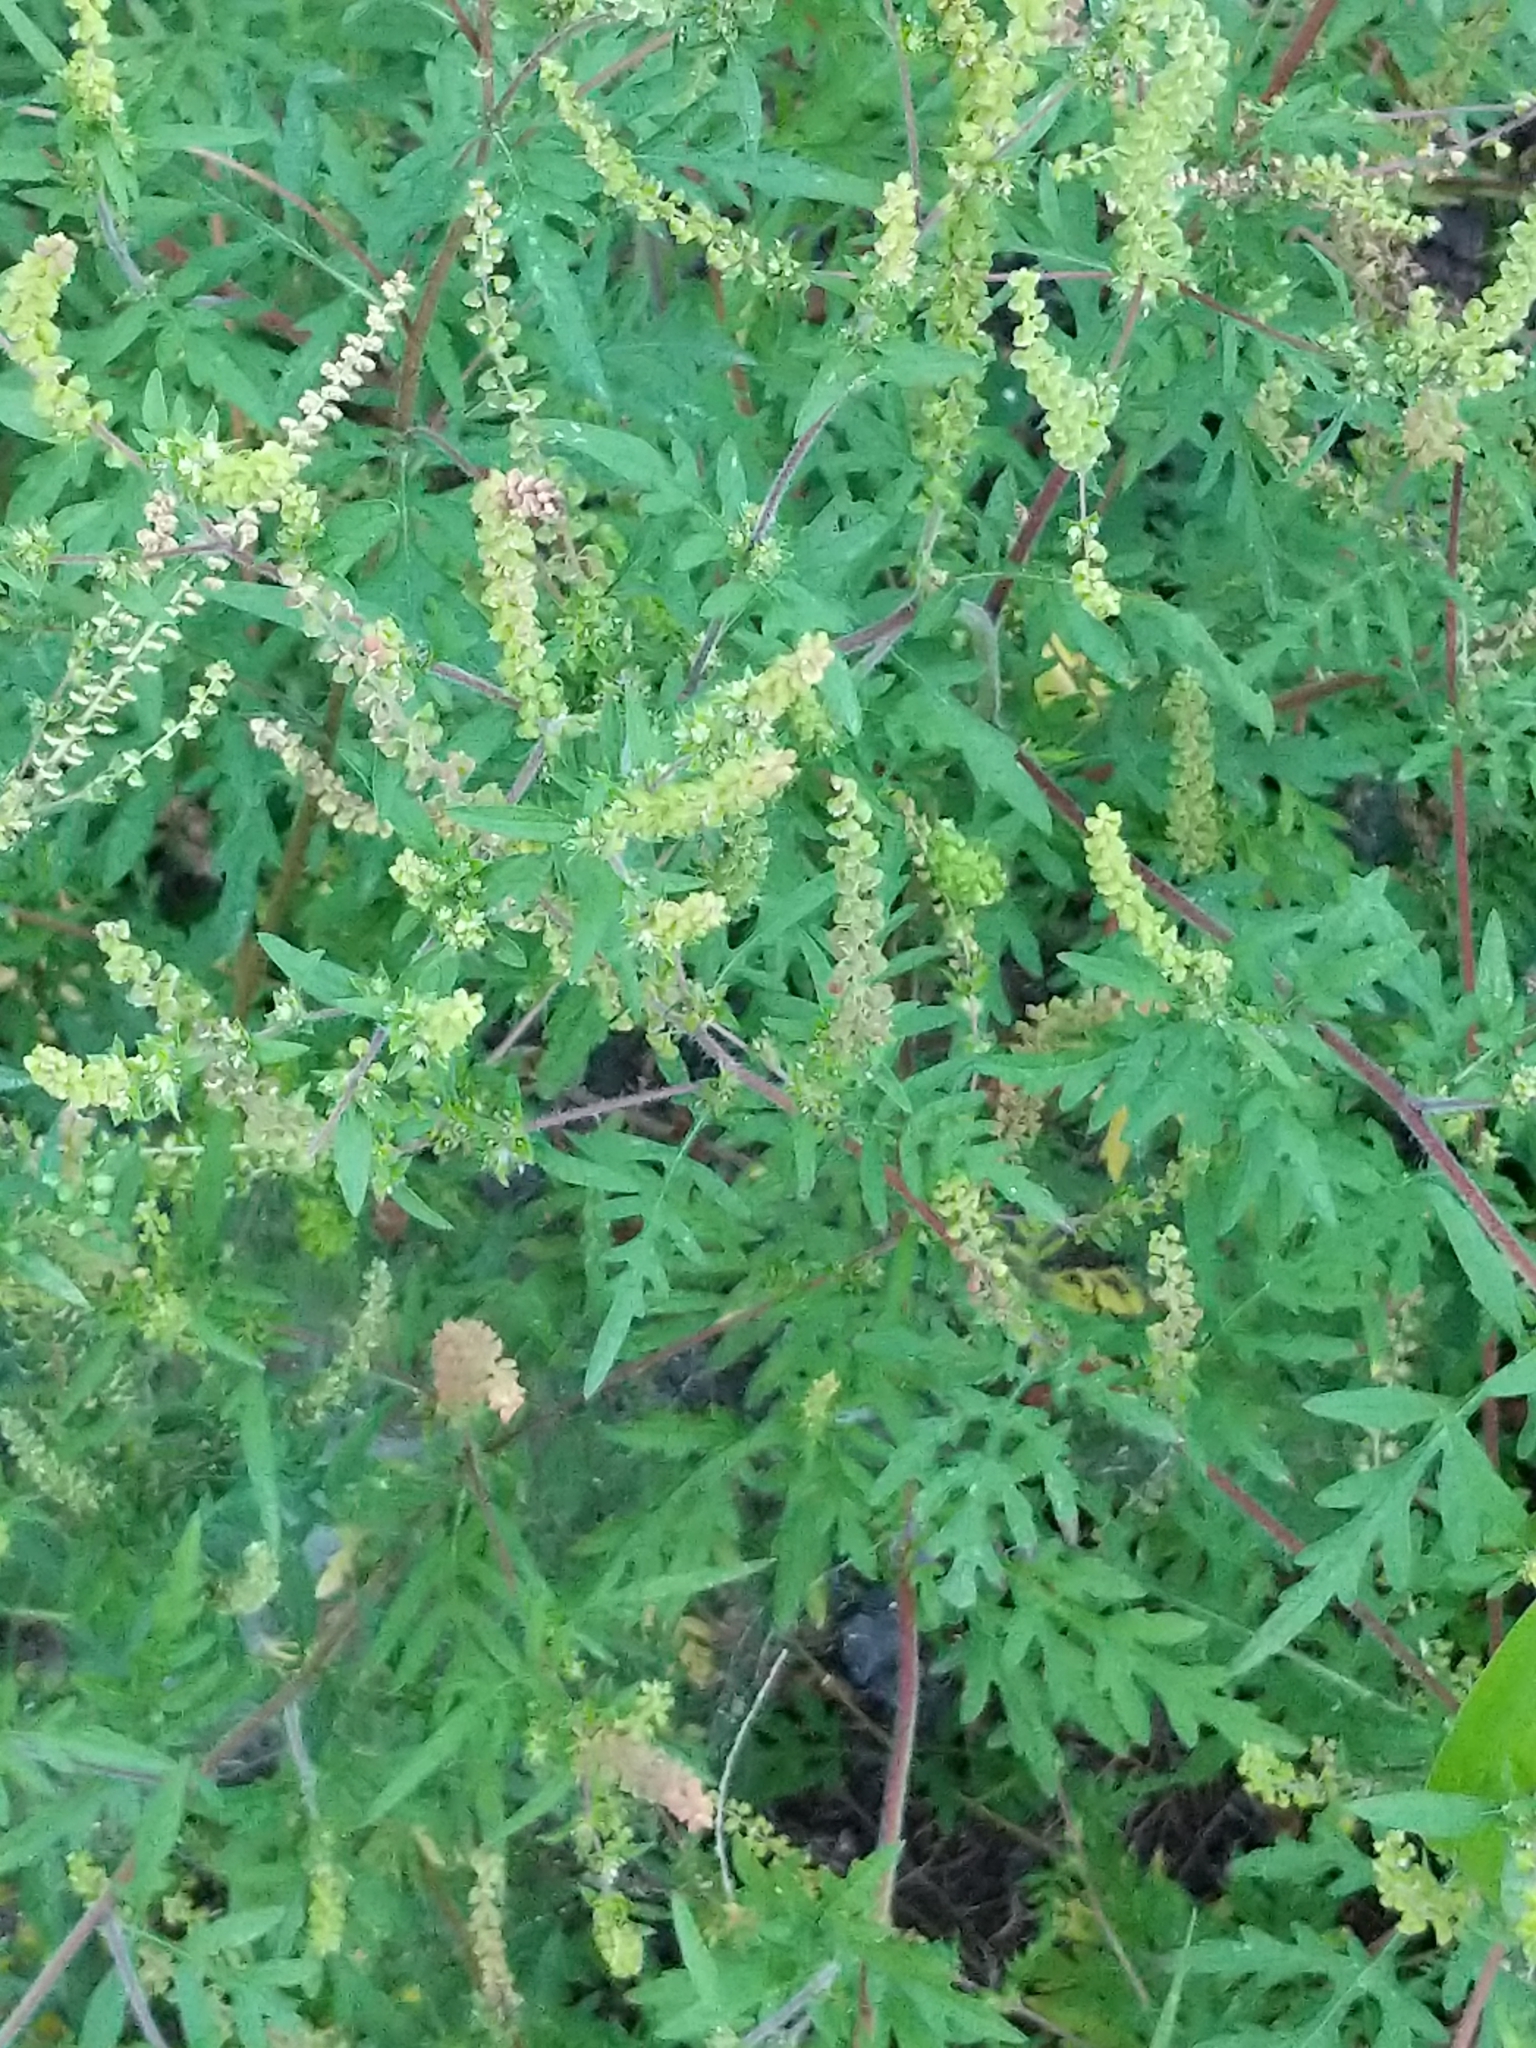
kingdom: Plantae
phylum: Tracheophyta
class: Magnoliopsida
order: Asterales
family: Asteraceae
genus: Ambrosia
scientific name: Ambrosia artemisiifolia
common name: Annual ragweed
